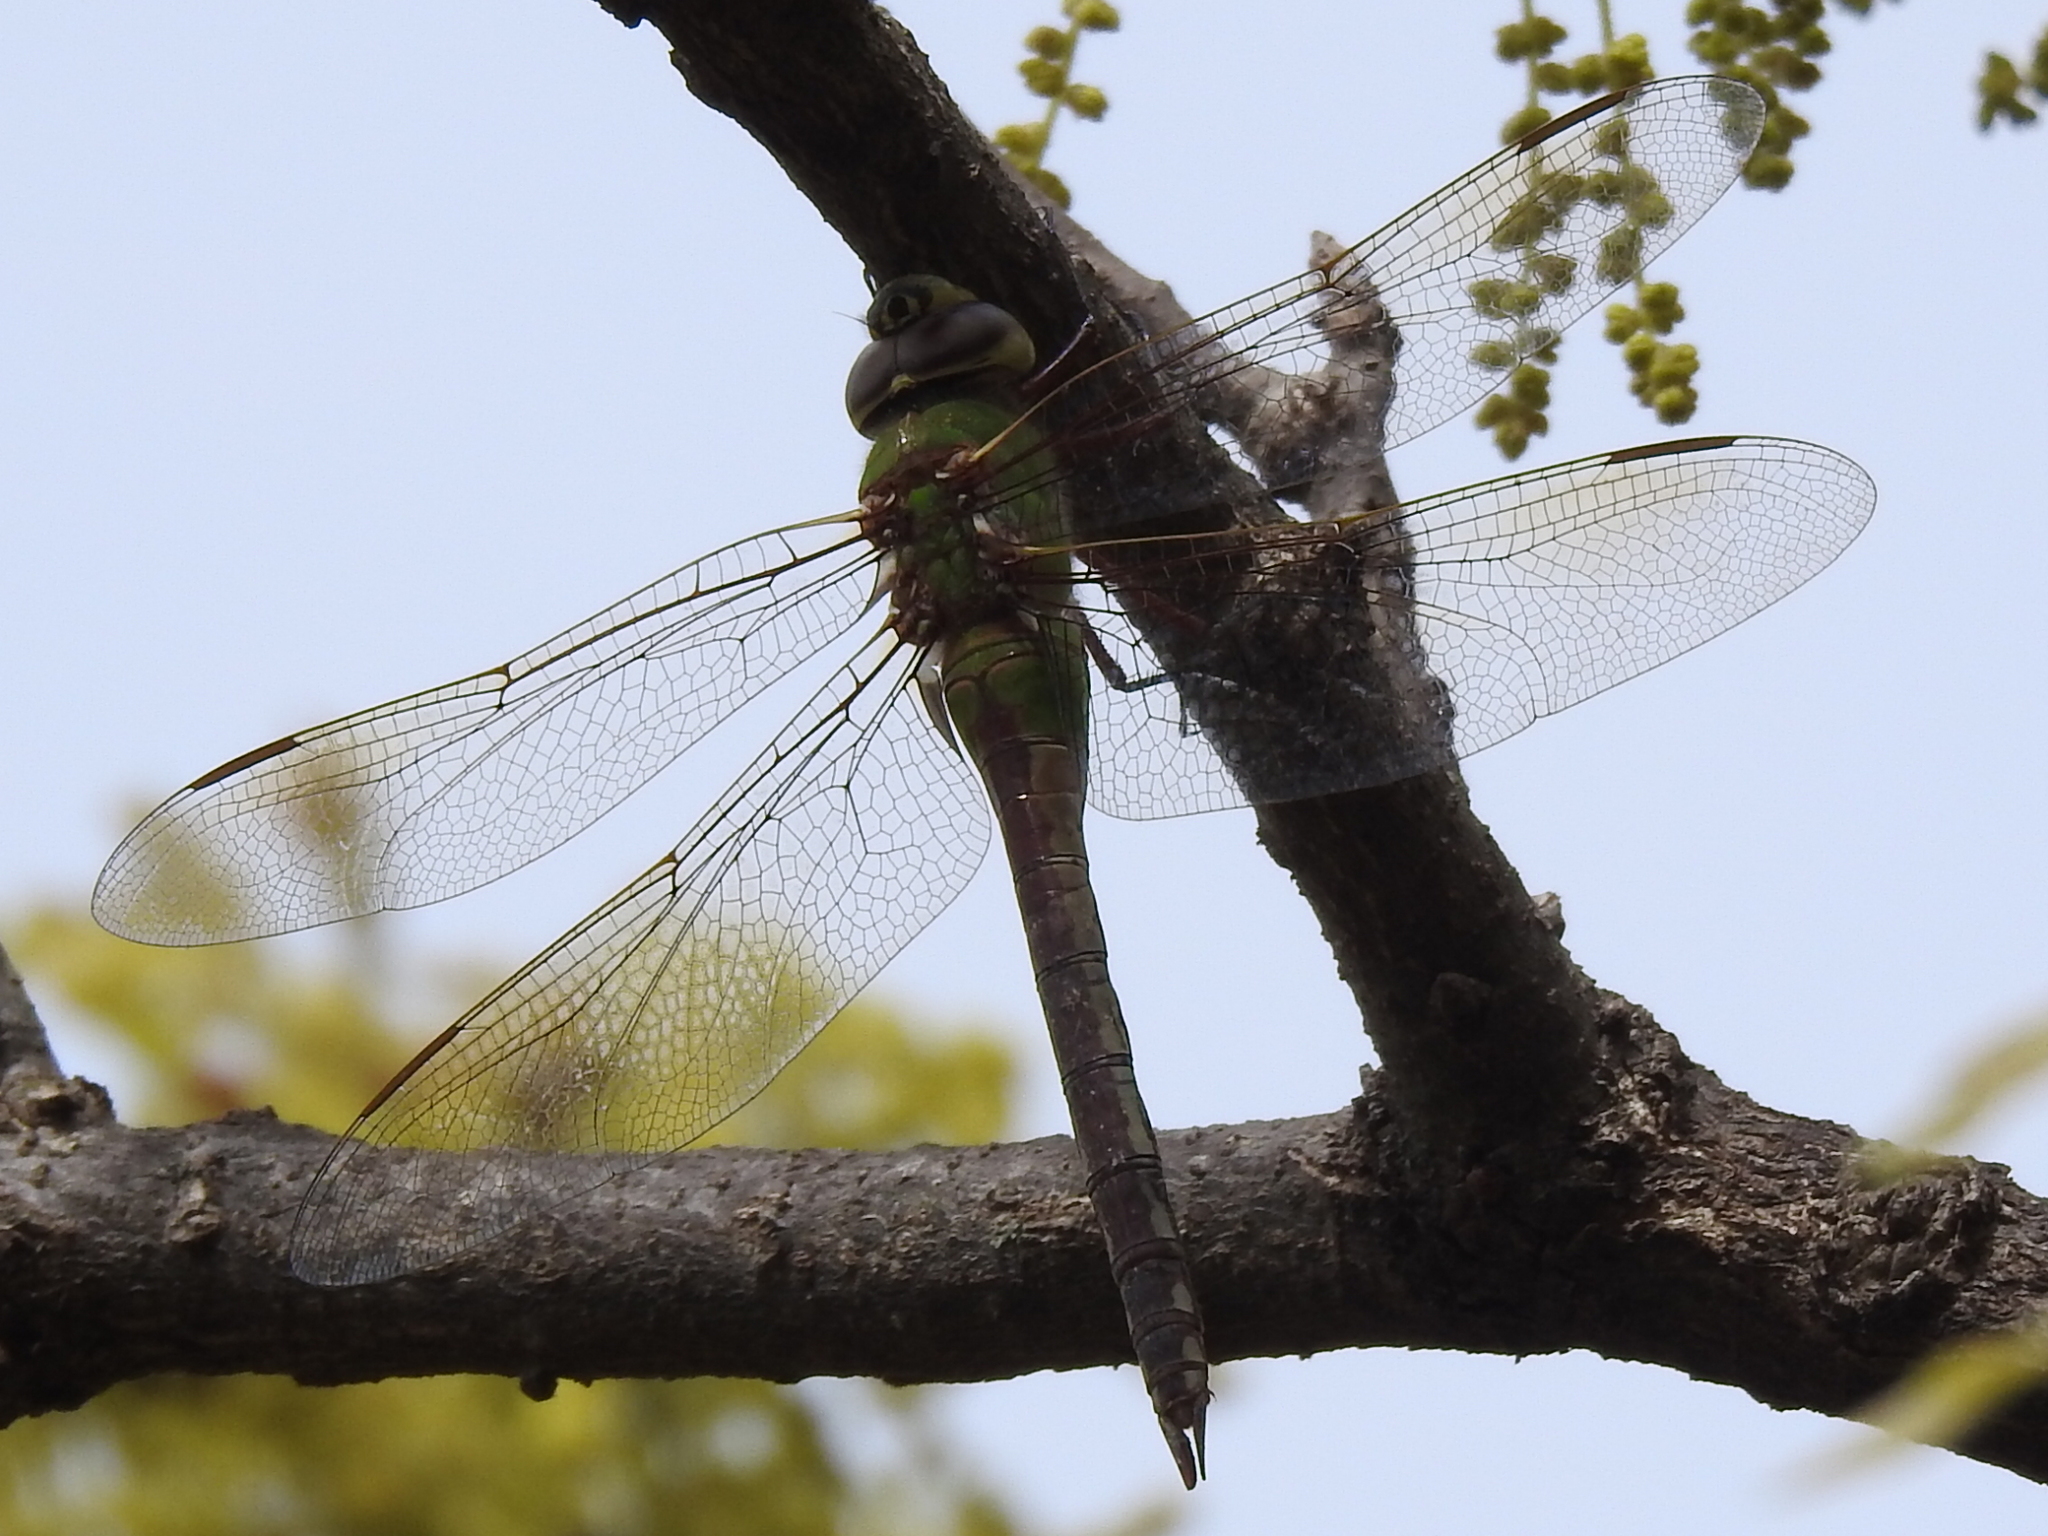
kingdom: Animalia
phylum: Arthropoda
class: Insecta
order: Odonata
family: Aeshnidae
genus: Anax
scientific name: Anax junius
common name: Common green darner
